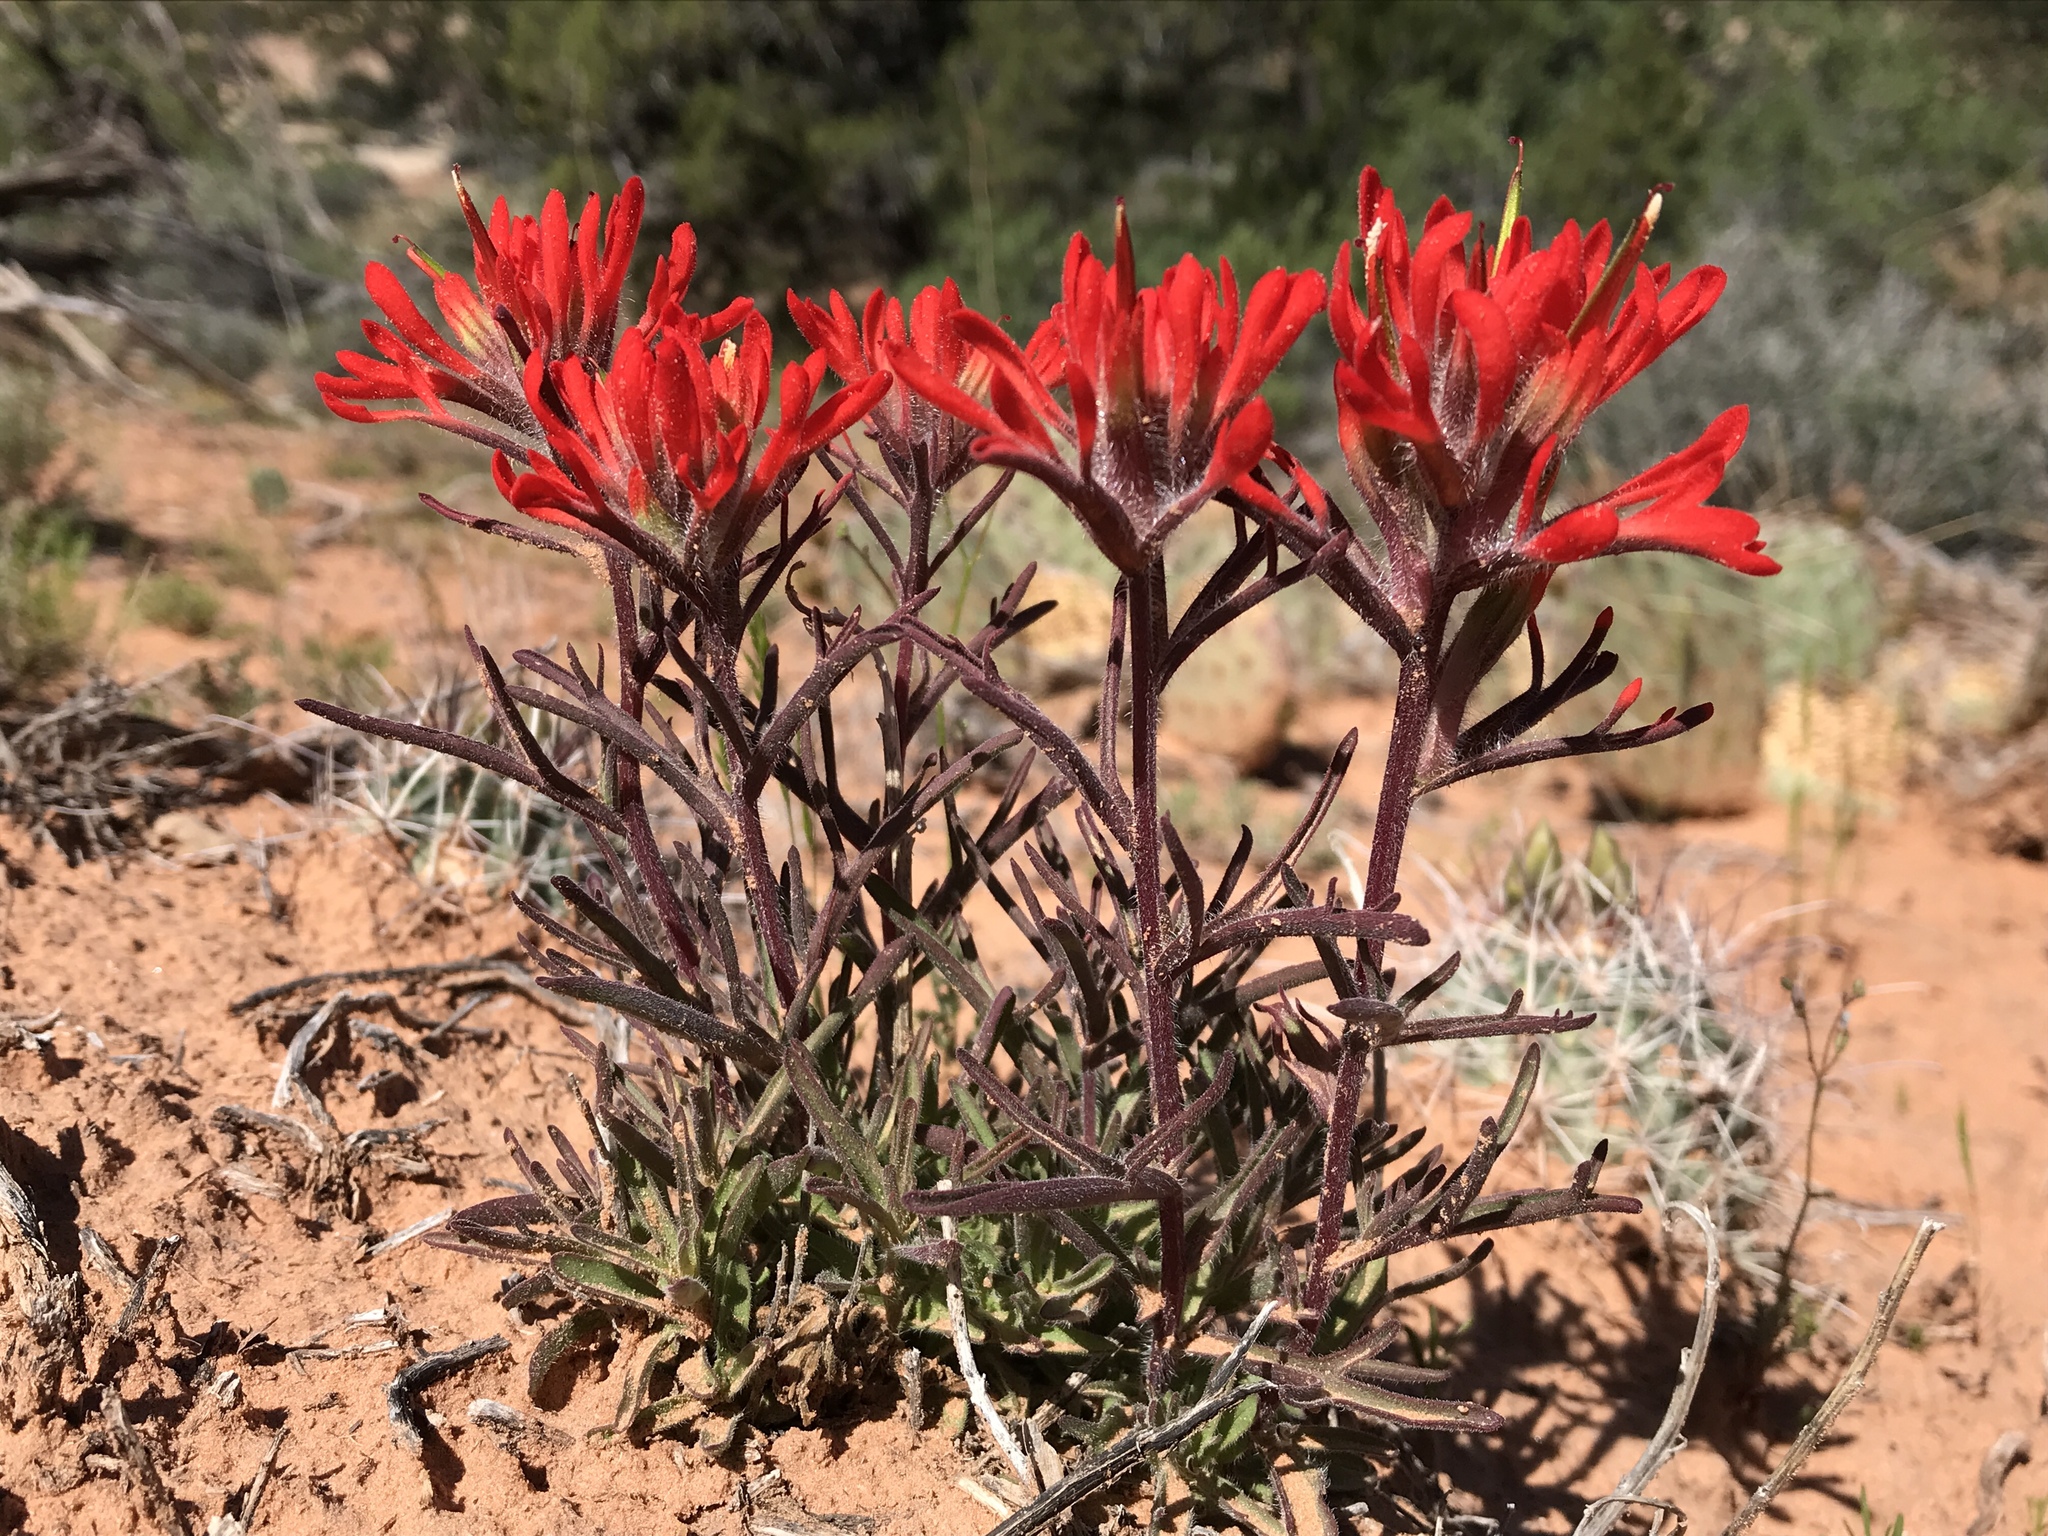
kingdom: Plantae
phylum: Tracheophyta
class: Magnoliopsida
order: Lamiales
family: Orobanchaceae
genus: Castilleja
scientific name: Castilleja chromosa
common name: Desert paintbrush
